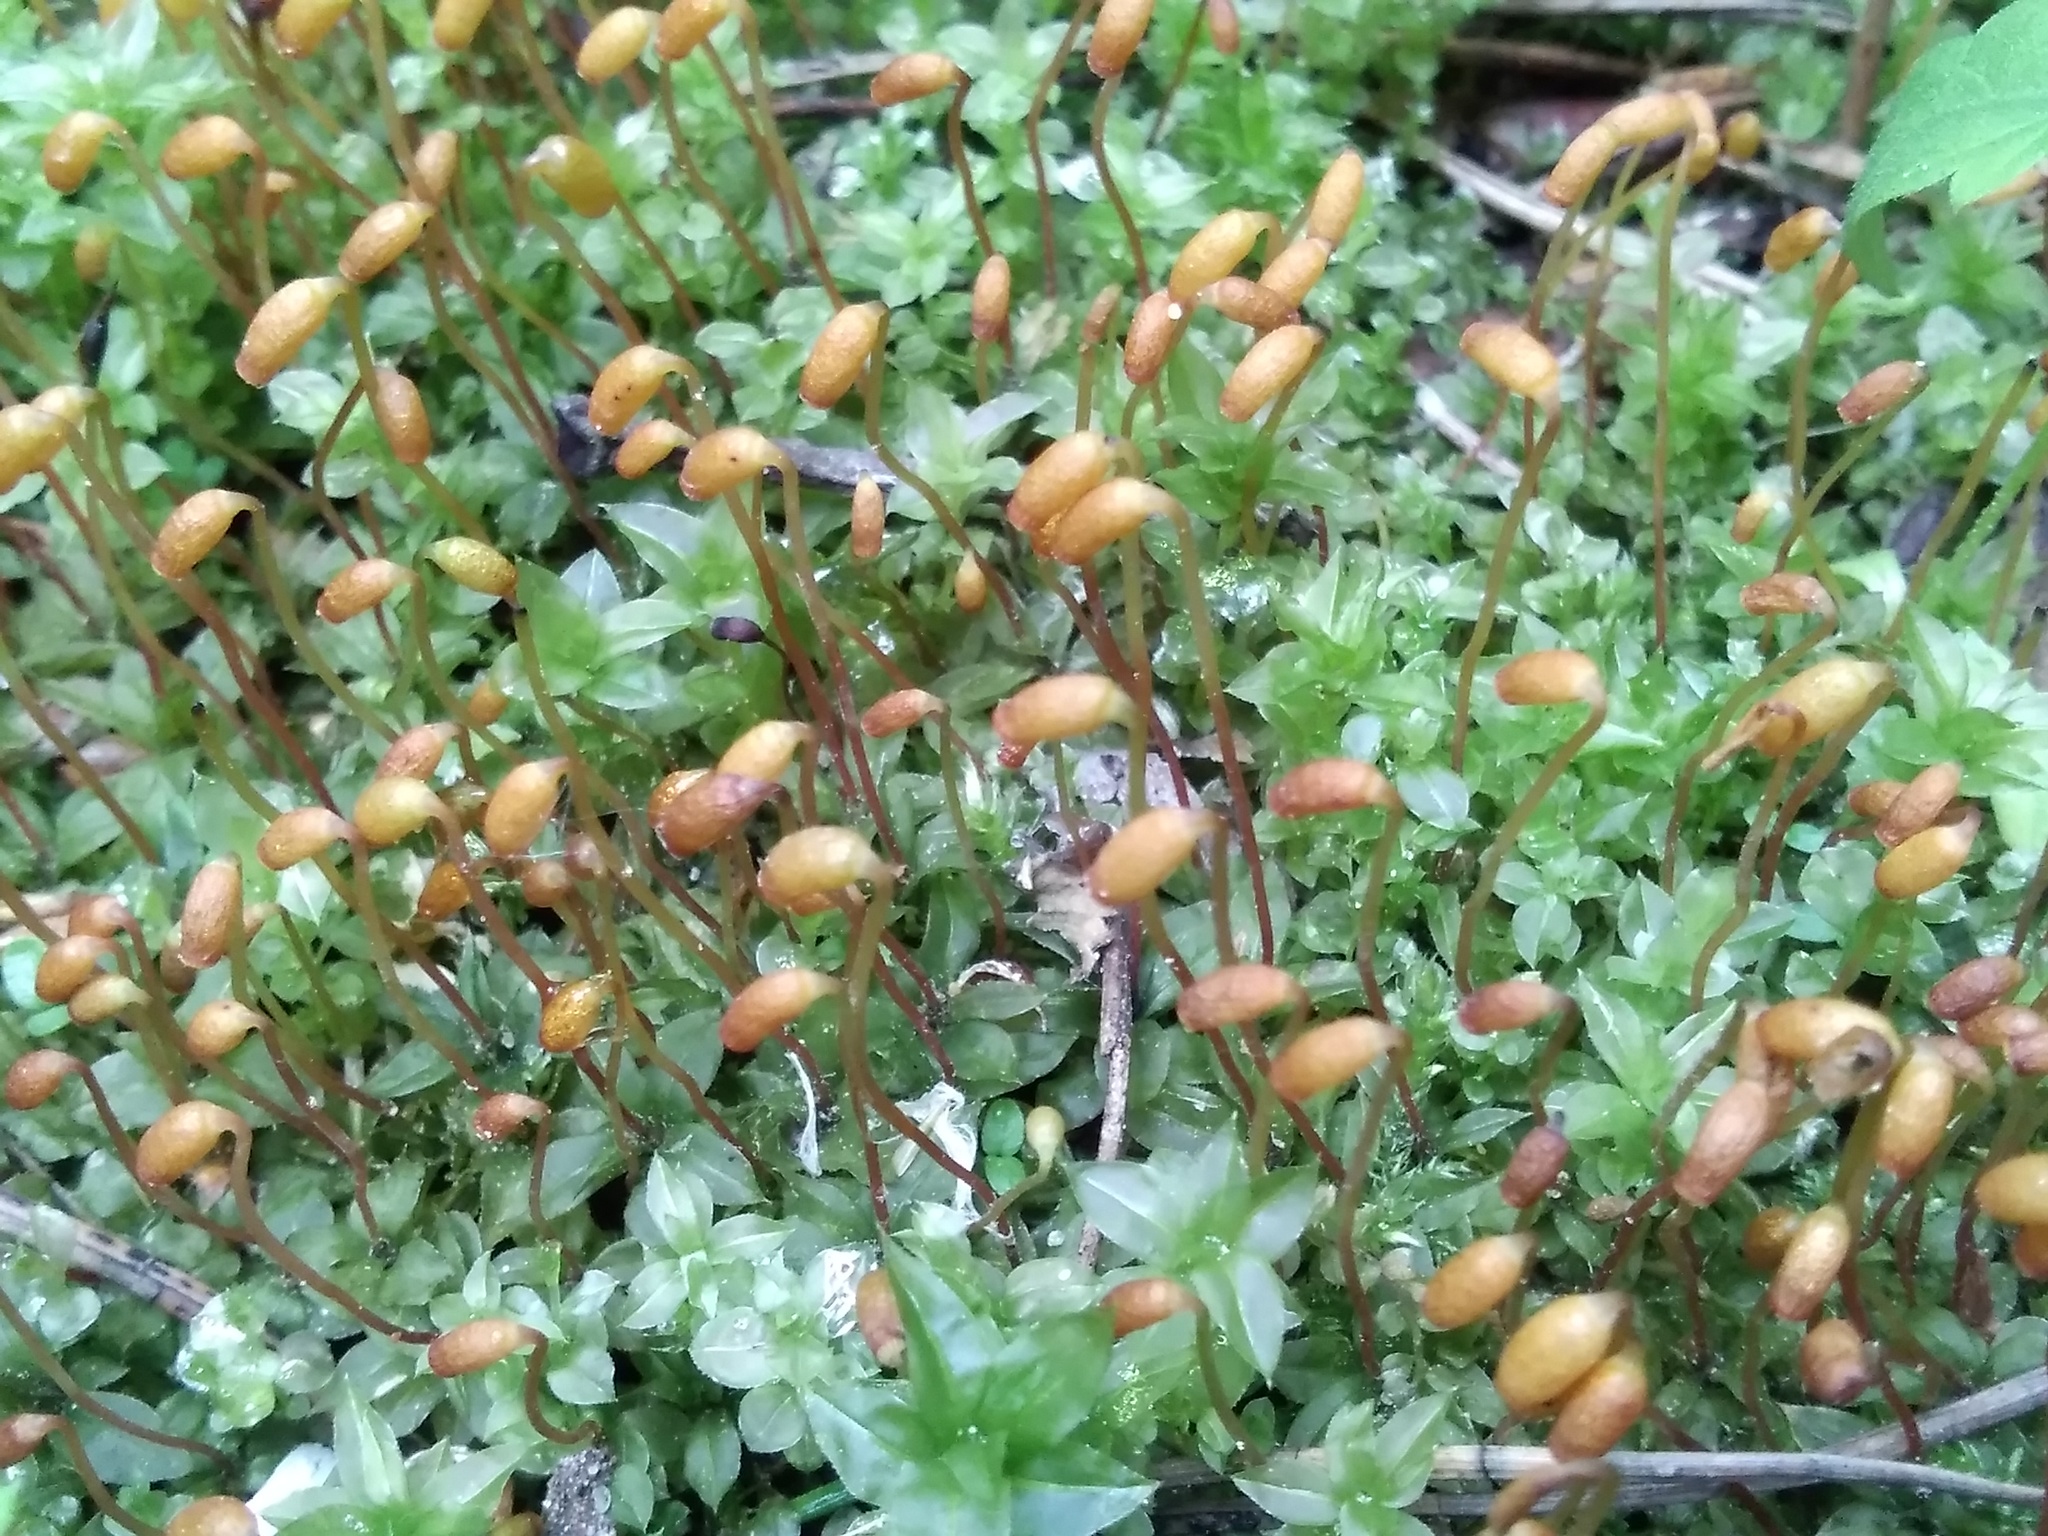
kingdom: Plantae
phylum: Bryophyta
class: Bryopsida
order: Bryales
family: Mniaceae
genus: Plagiomnium
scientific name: Plagiomnium cuspidatum
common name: Woodsy leafy moss
